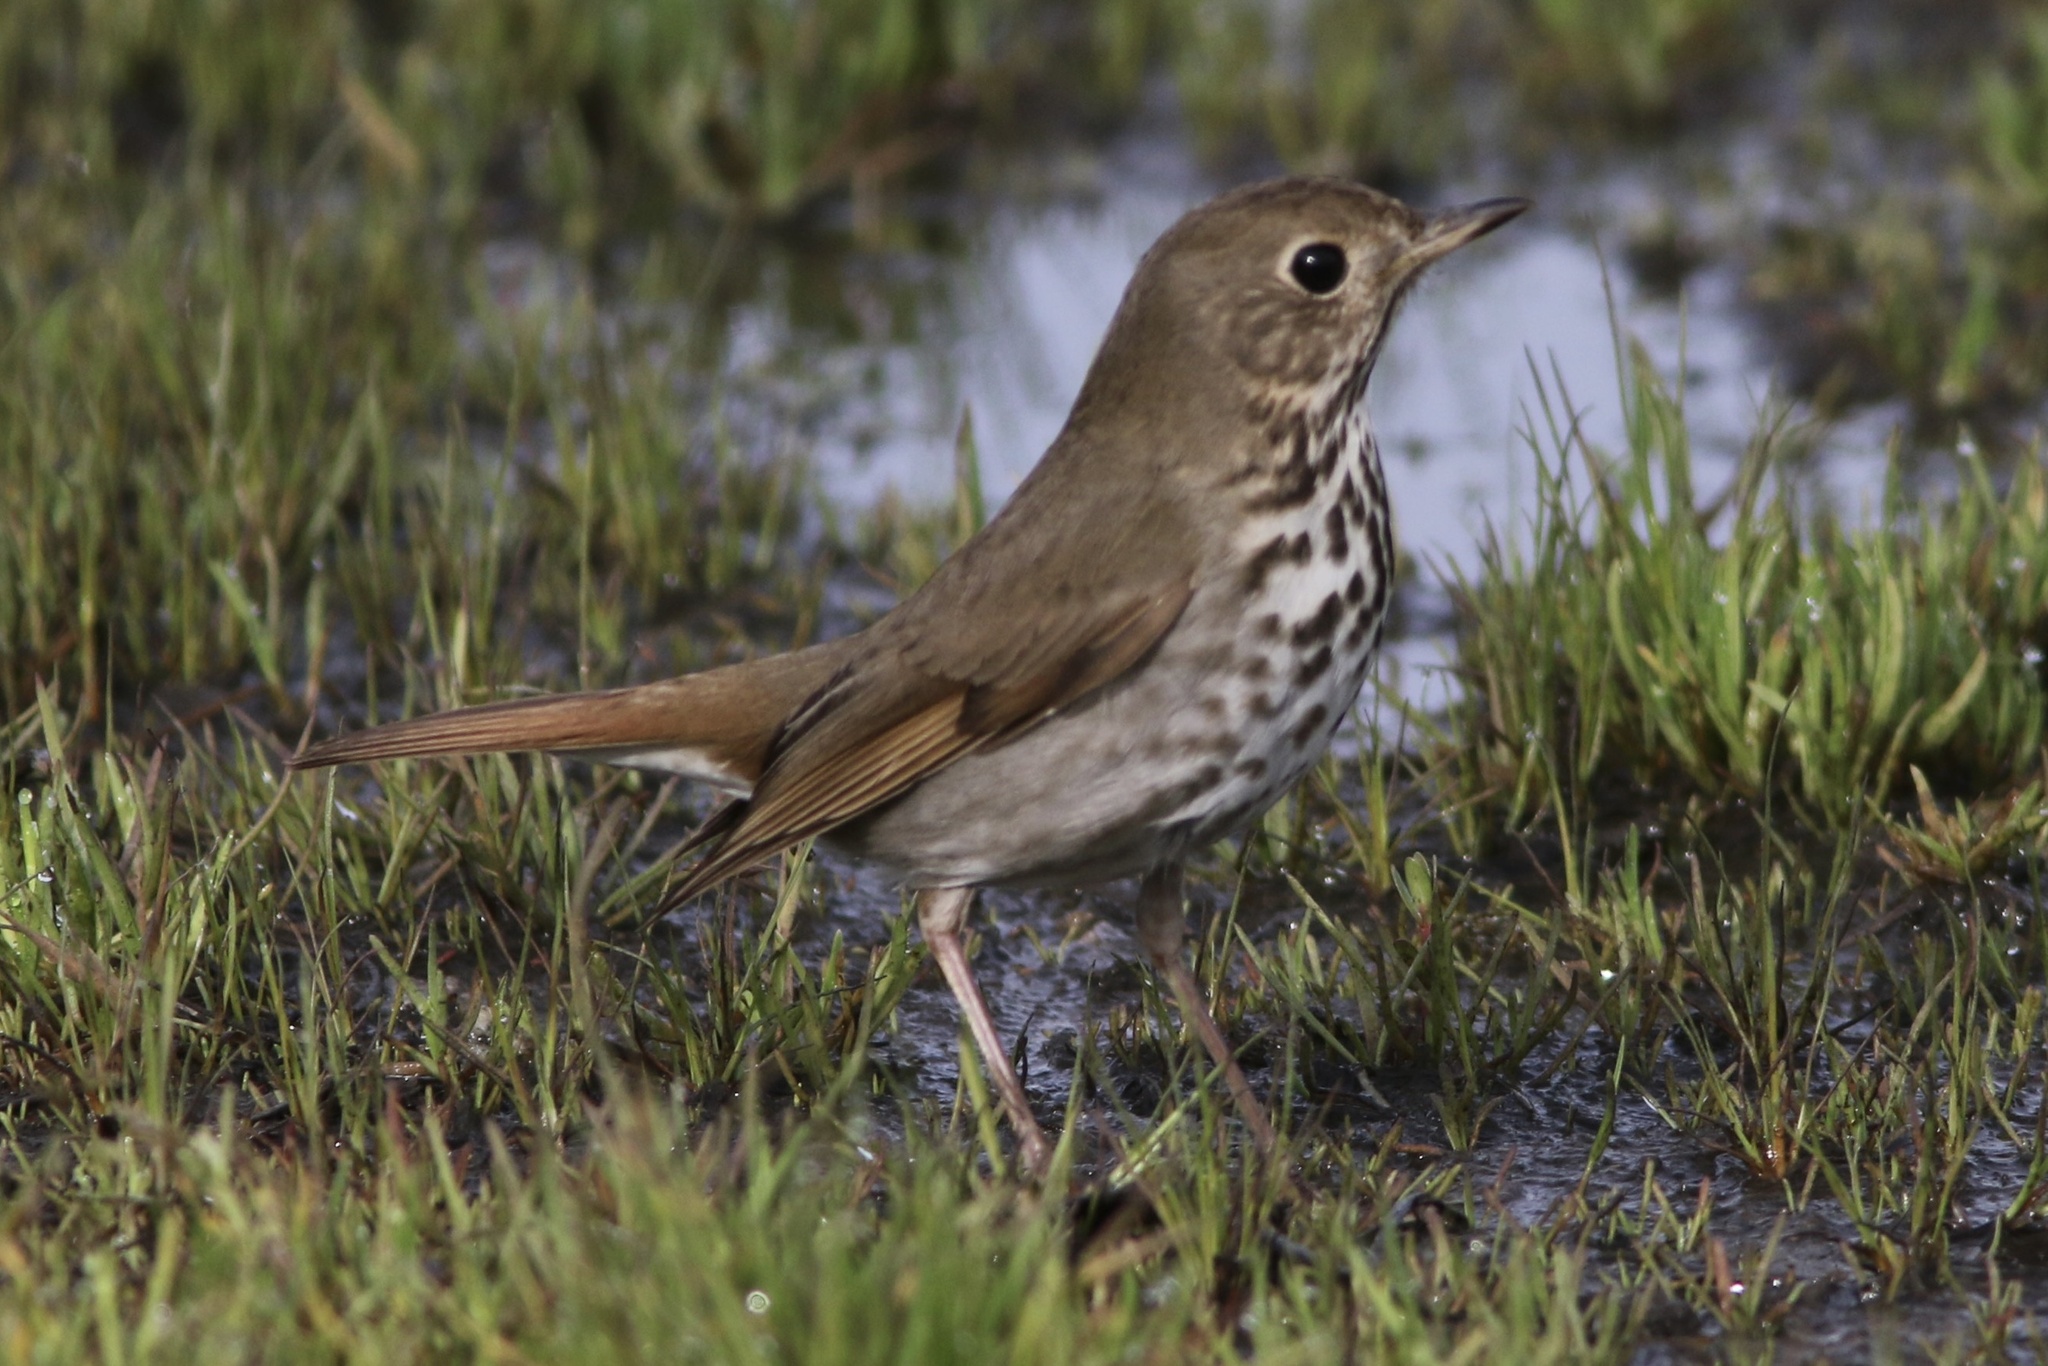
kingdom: Animalia
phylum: Chordata
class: Aves
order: Passeriformes
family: Turdidae
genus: Catharus
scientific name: Catharus guttatus
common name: Hermit thrush
